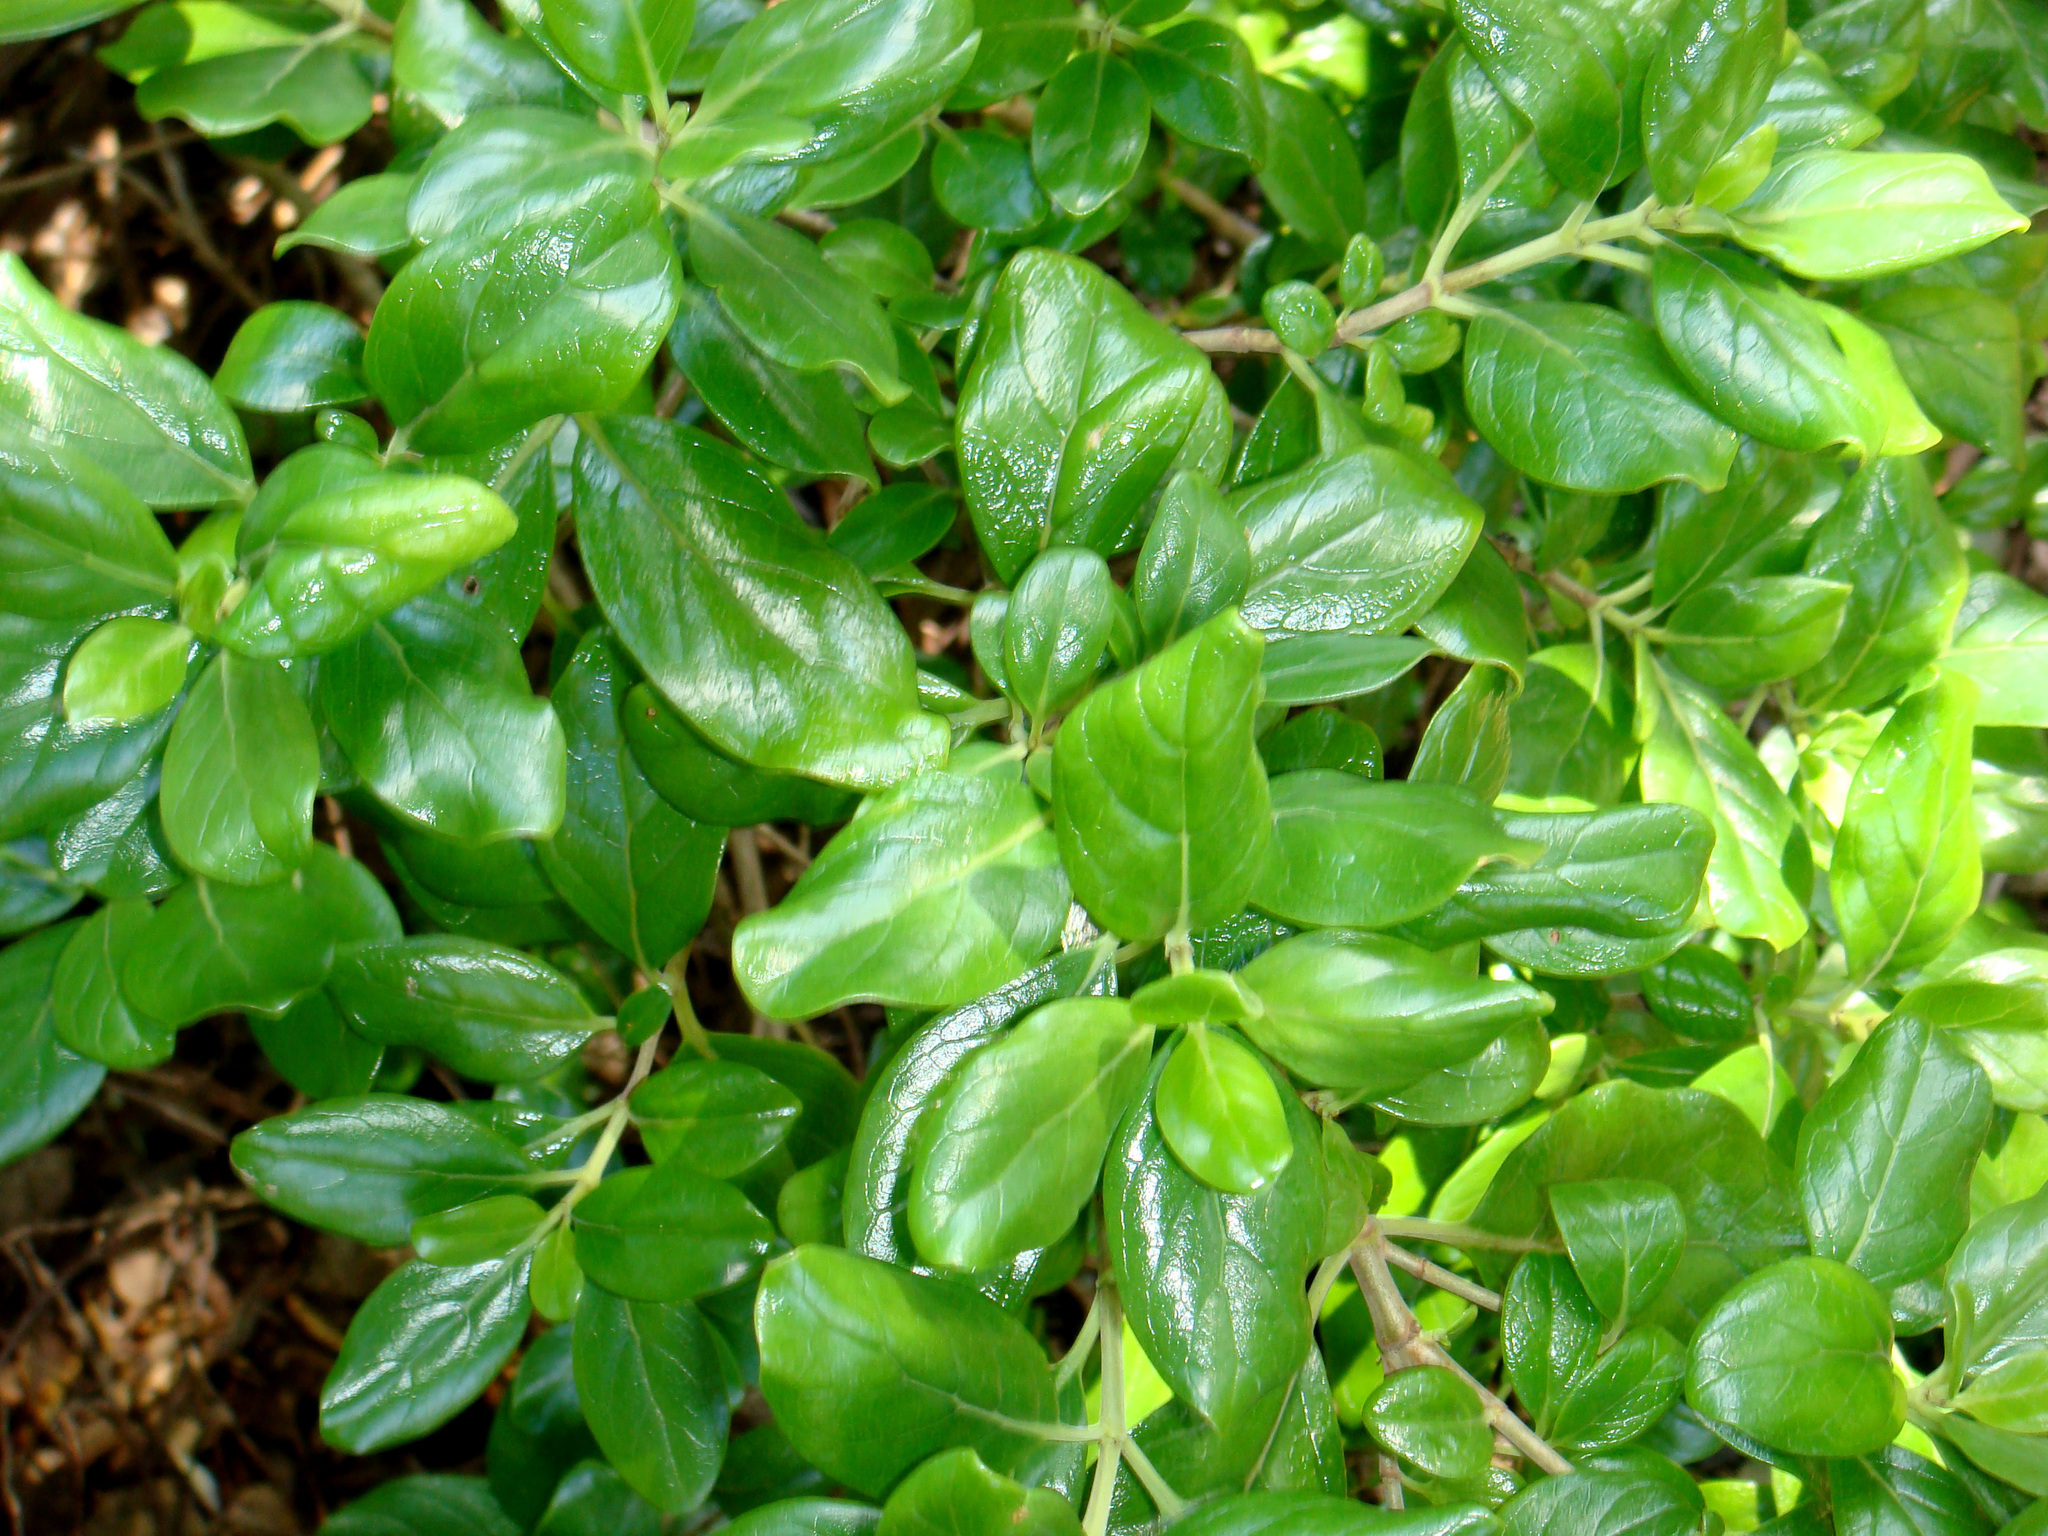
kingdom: Plantae
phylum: Tracheophyta
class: Magnoliopsida
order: Gentianales
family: Rubiaceae
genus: Coprosma
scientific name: Coprosma petiolata
